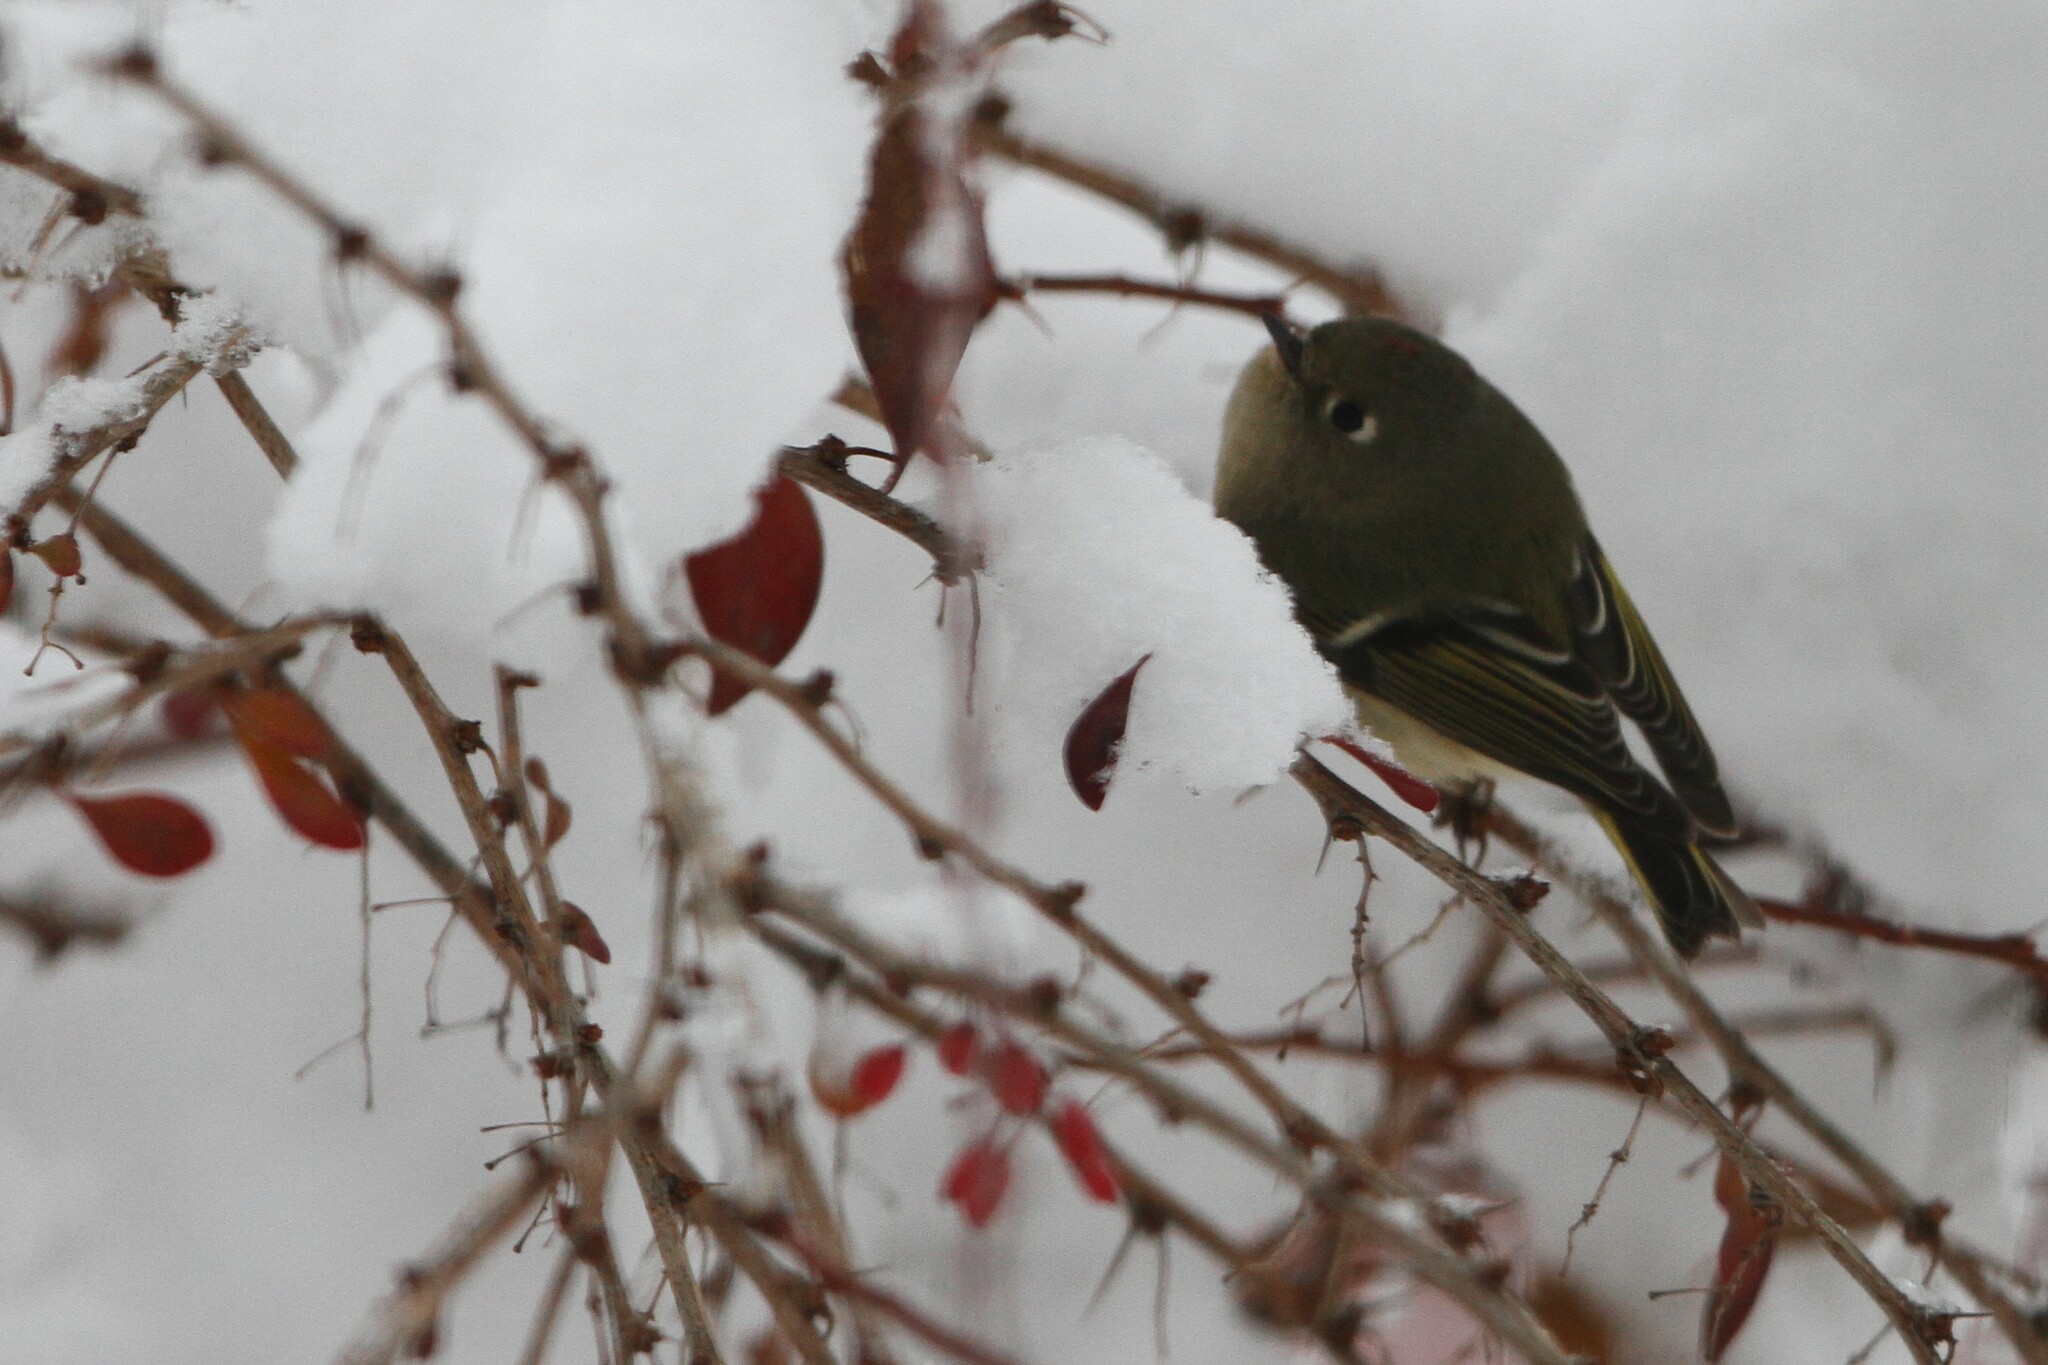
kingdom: Animalia
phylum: Chordata
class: Aves
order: Passeriformes
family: Regulidae
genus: Regulus
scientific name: Regulus calendula
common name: Ruby-crowned kinglet
